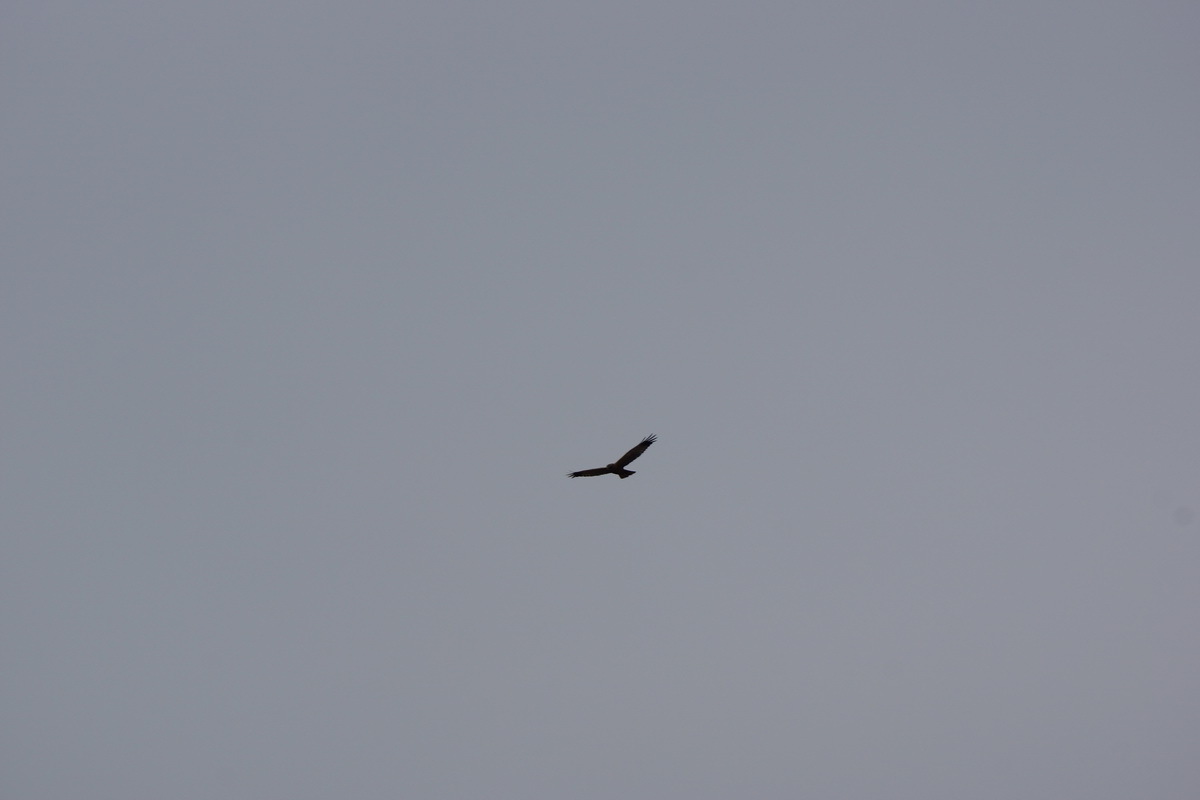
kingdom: Animalia
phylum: Chordata
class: Aves
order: Accipitriformes
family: Accipitridae
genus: Circus
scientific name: Circus aeruginosus
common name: Western marsh harrier
